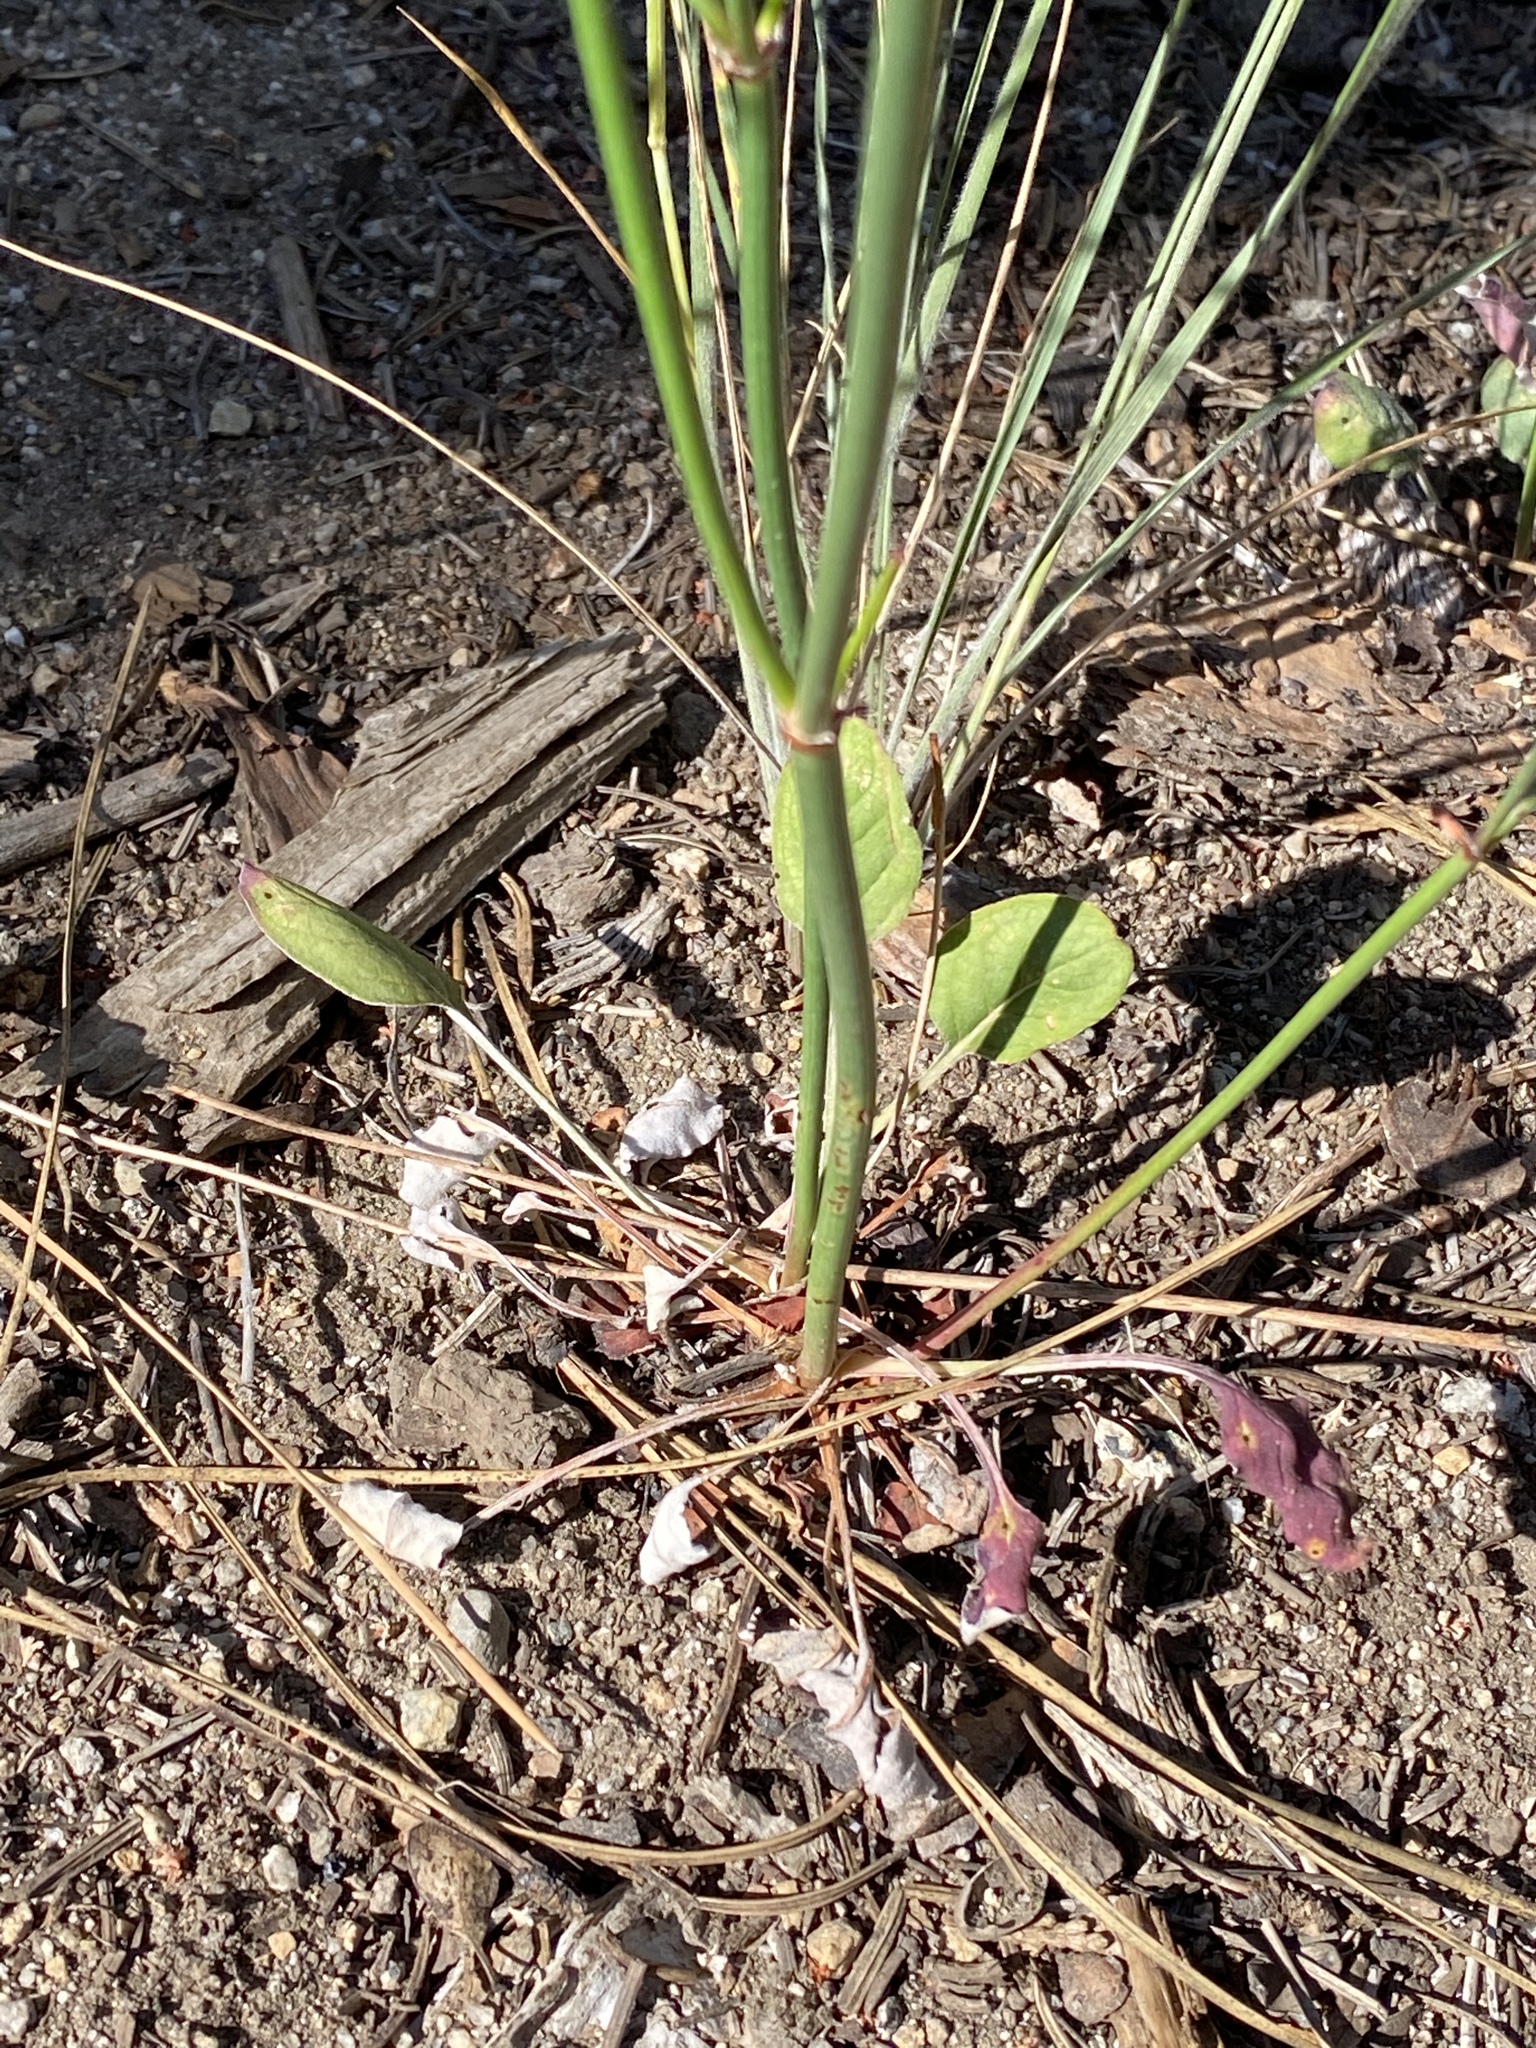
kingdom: Plantae
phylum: Tracheophyta
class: Magnoliopsida
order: Caryophyllales
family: Polygonaceae
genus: Eriogonum
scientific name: Eriogonum nudum
